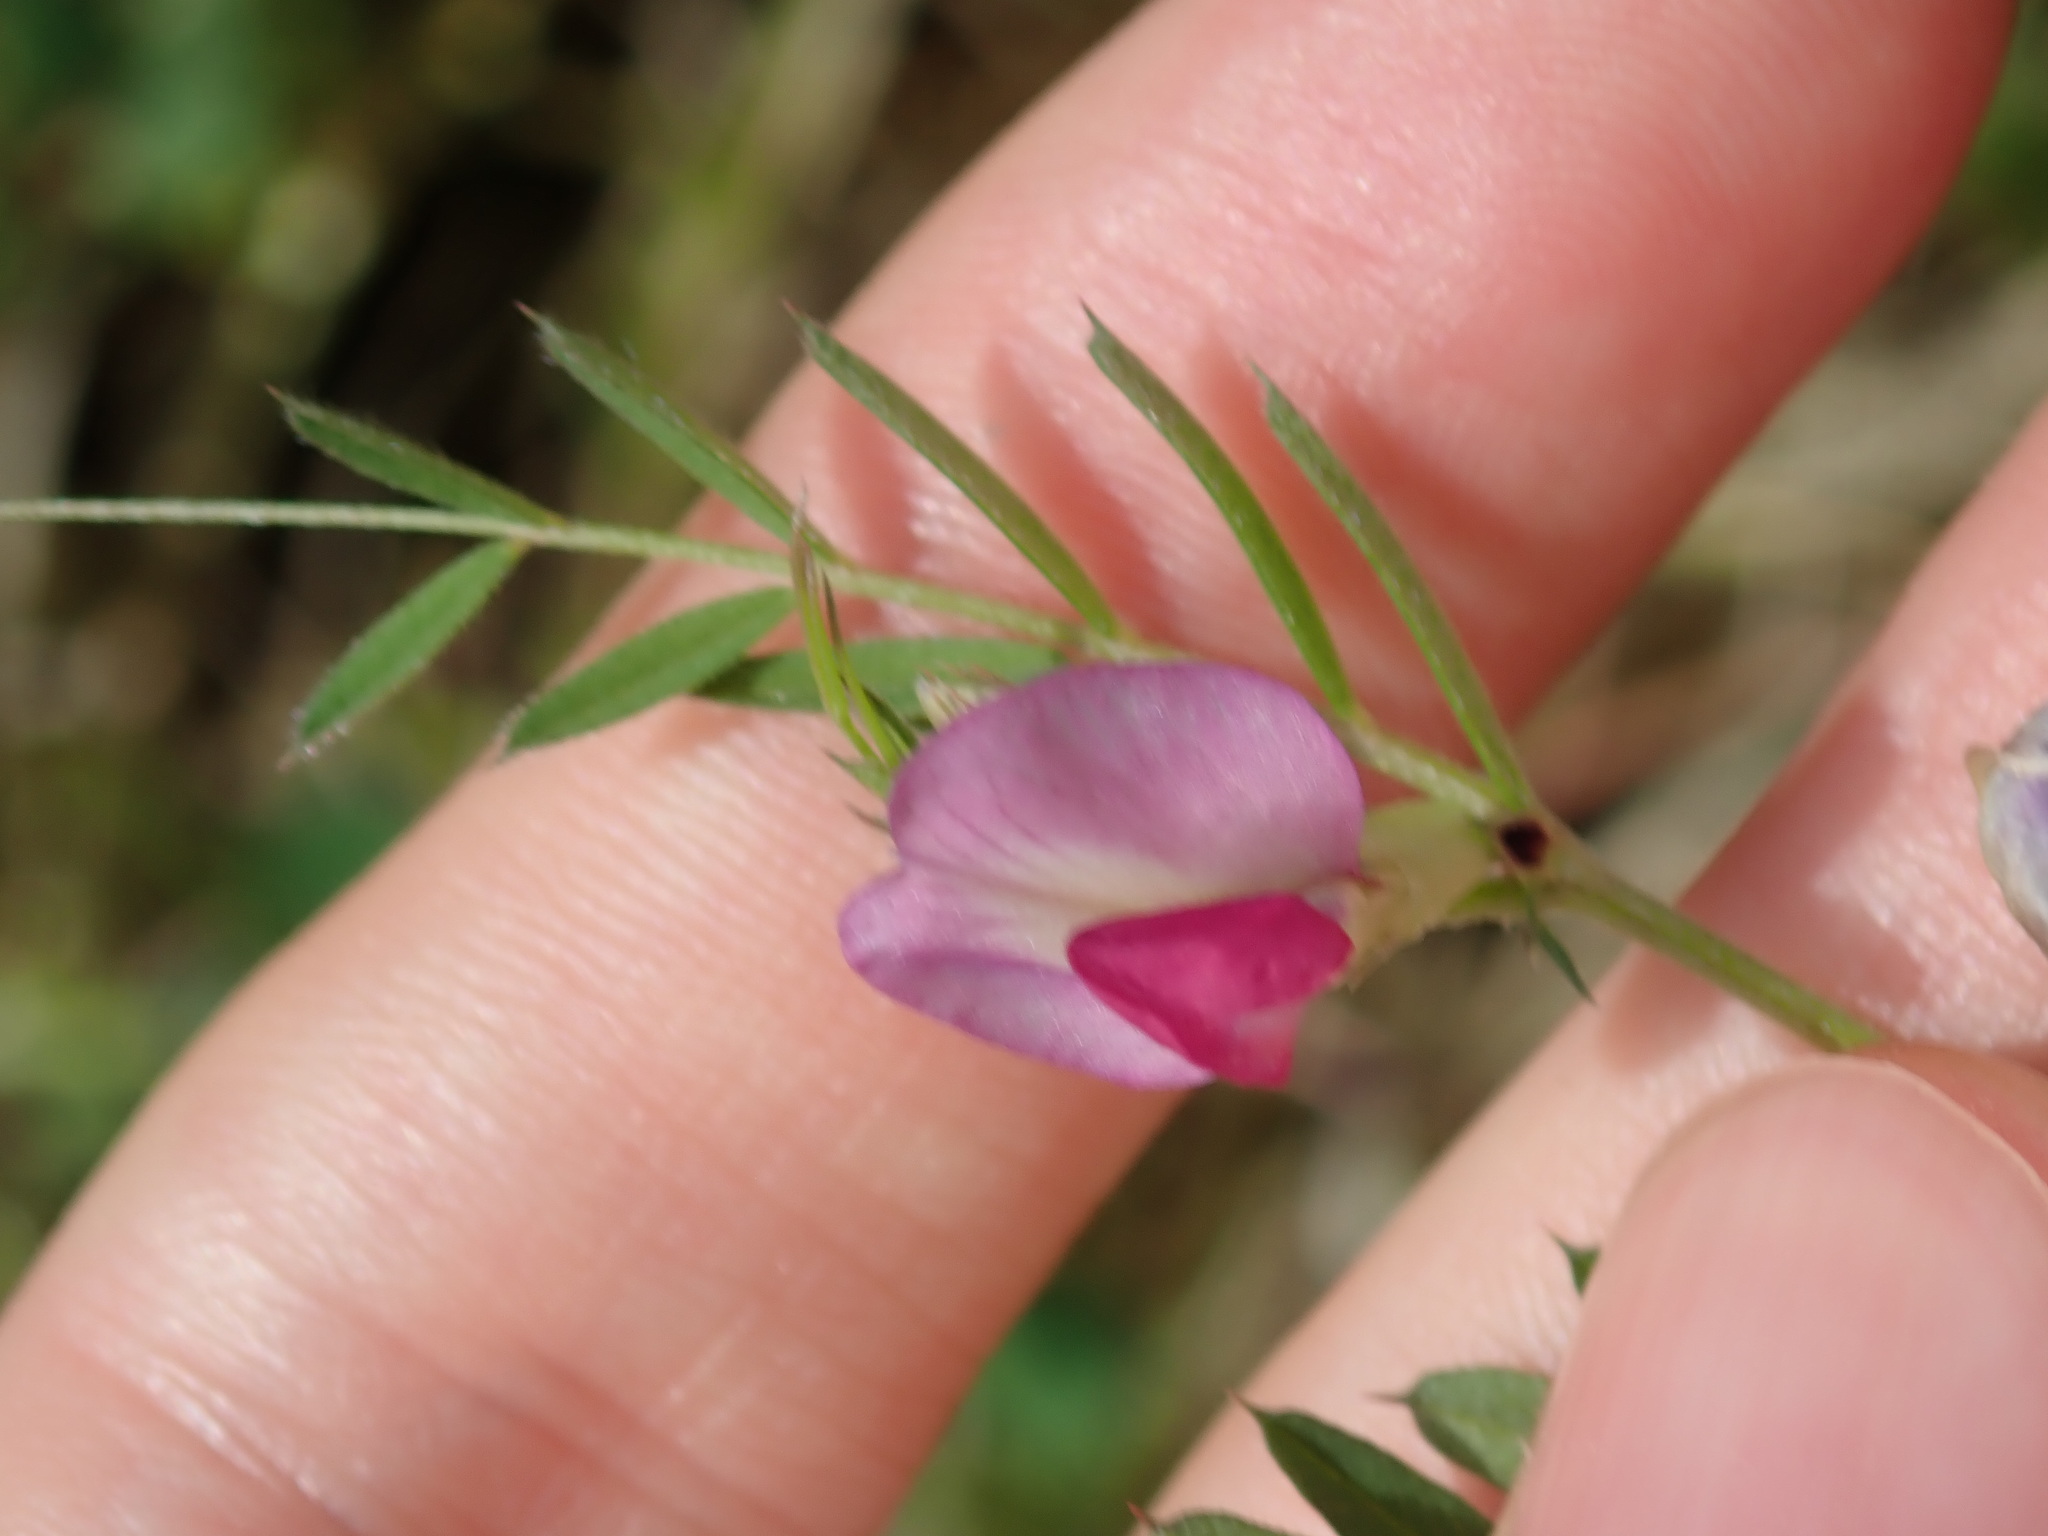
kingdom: Plantae
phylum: Tracheophyta
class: Magnoliopsida
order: Fabales
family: Fabaceae
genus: Vicia
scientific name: Vicia sativa
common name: Garden vetch
